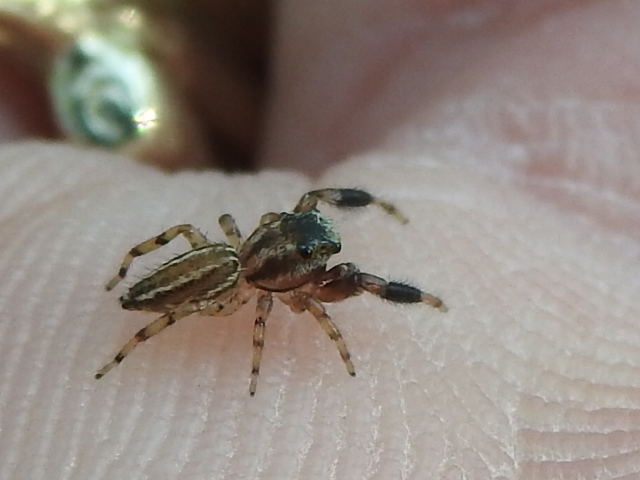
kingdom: Animalia
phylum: Arthropoda
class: Arachnida
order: Araneae
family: Salticidae
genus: Marpissa
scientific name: Marpissa lineata
